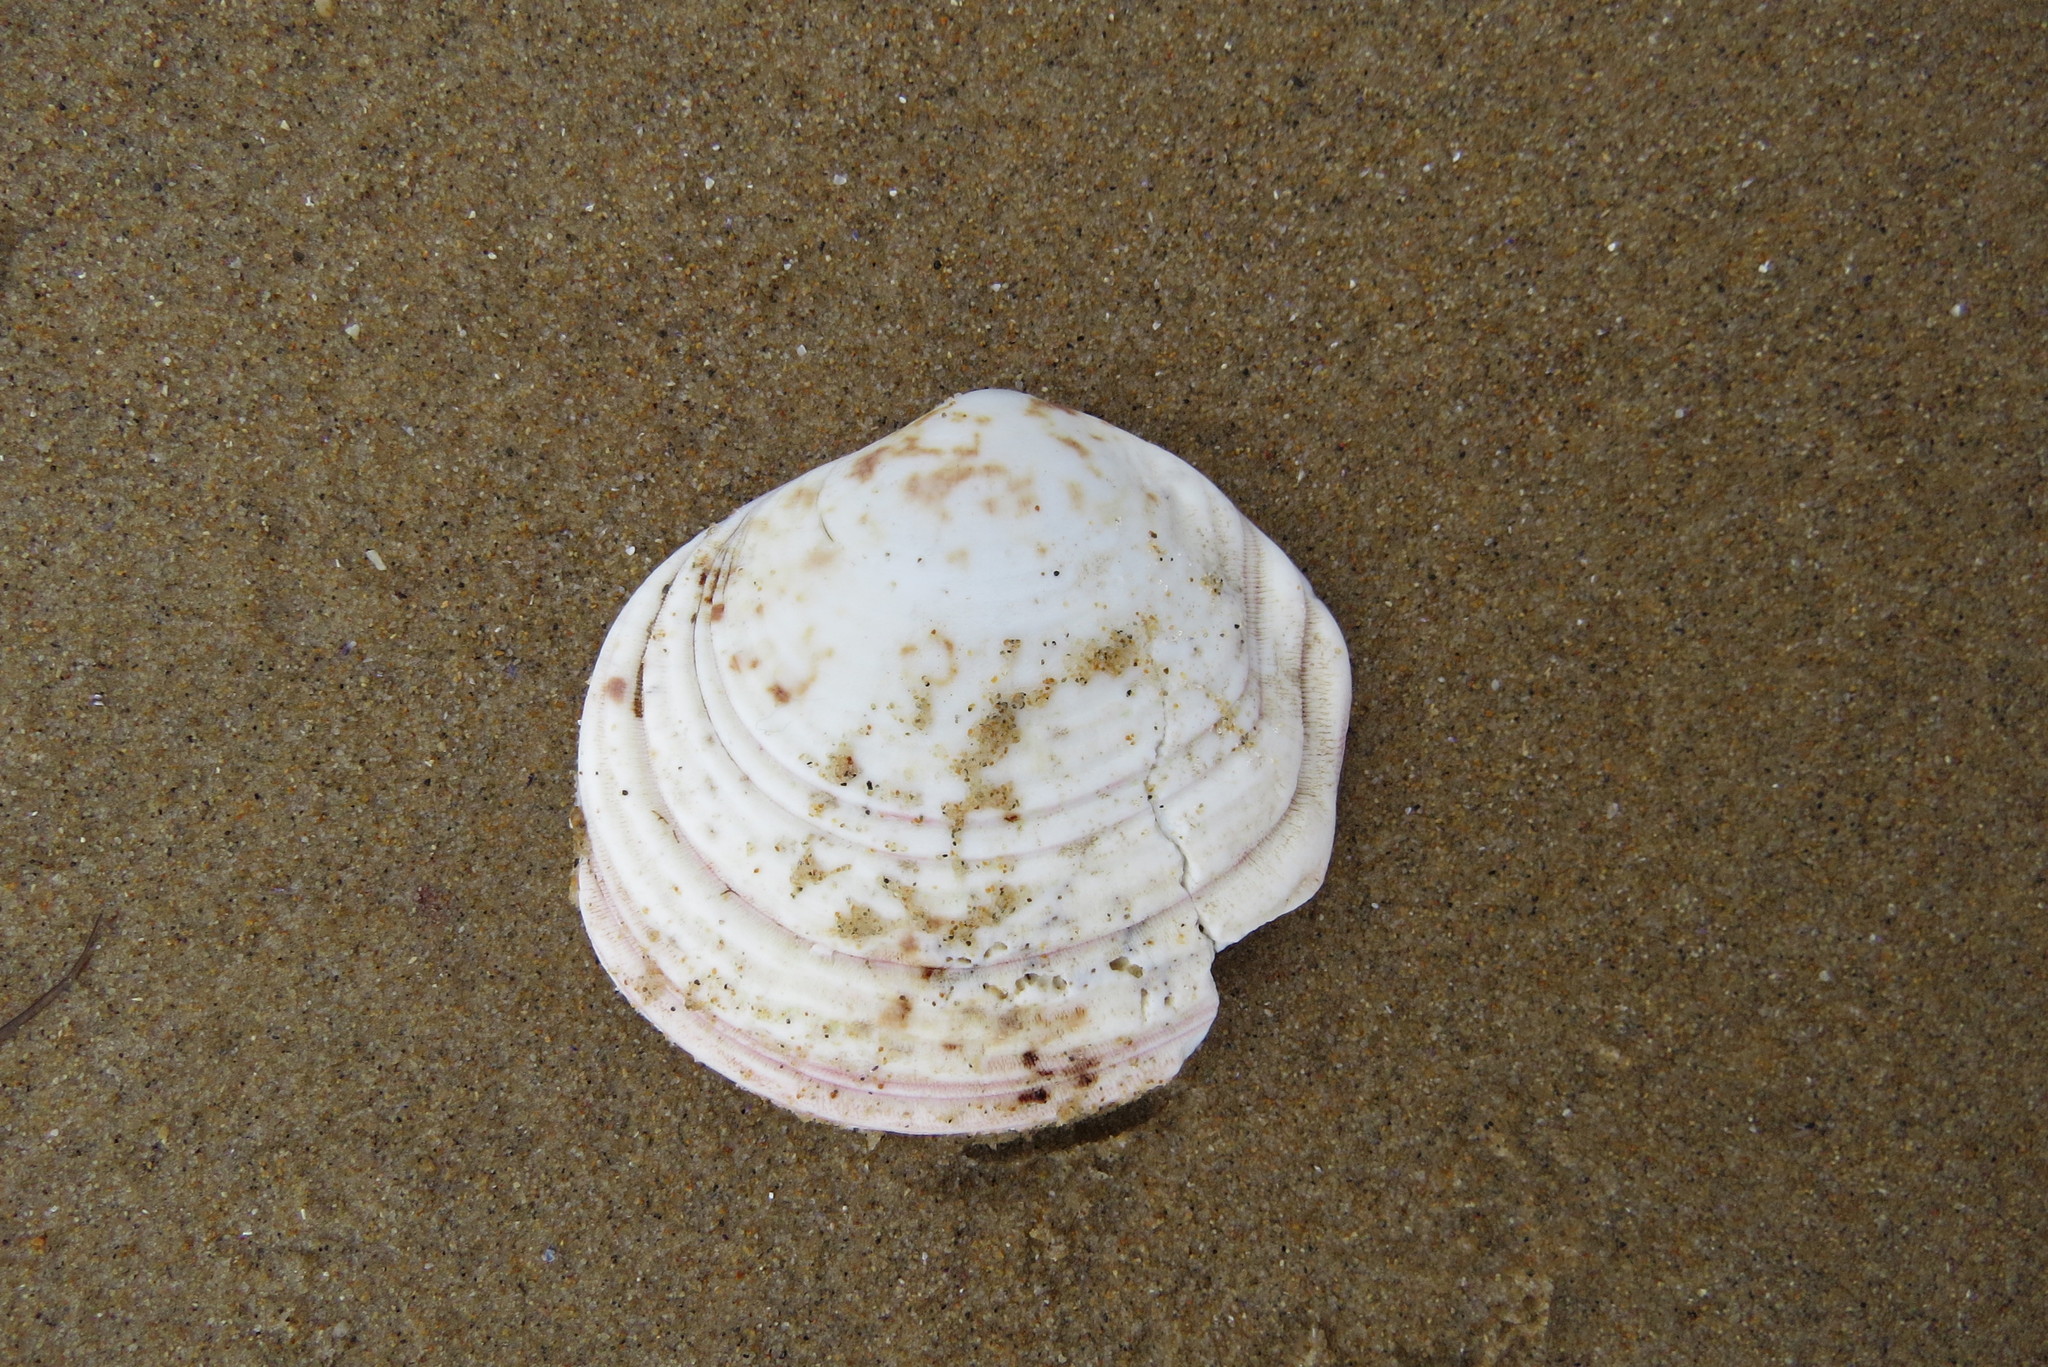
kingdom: Animalia
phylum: Mollusca
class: Bivalvia
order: Cardiida
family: Semelidae
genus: Semele
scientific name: Semele decisa
